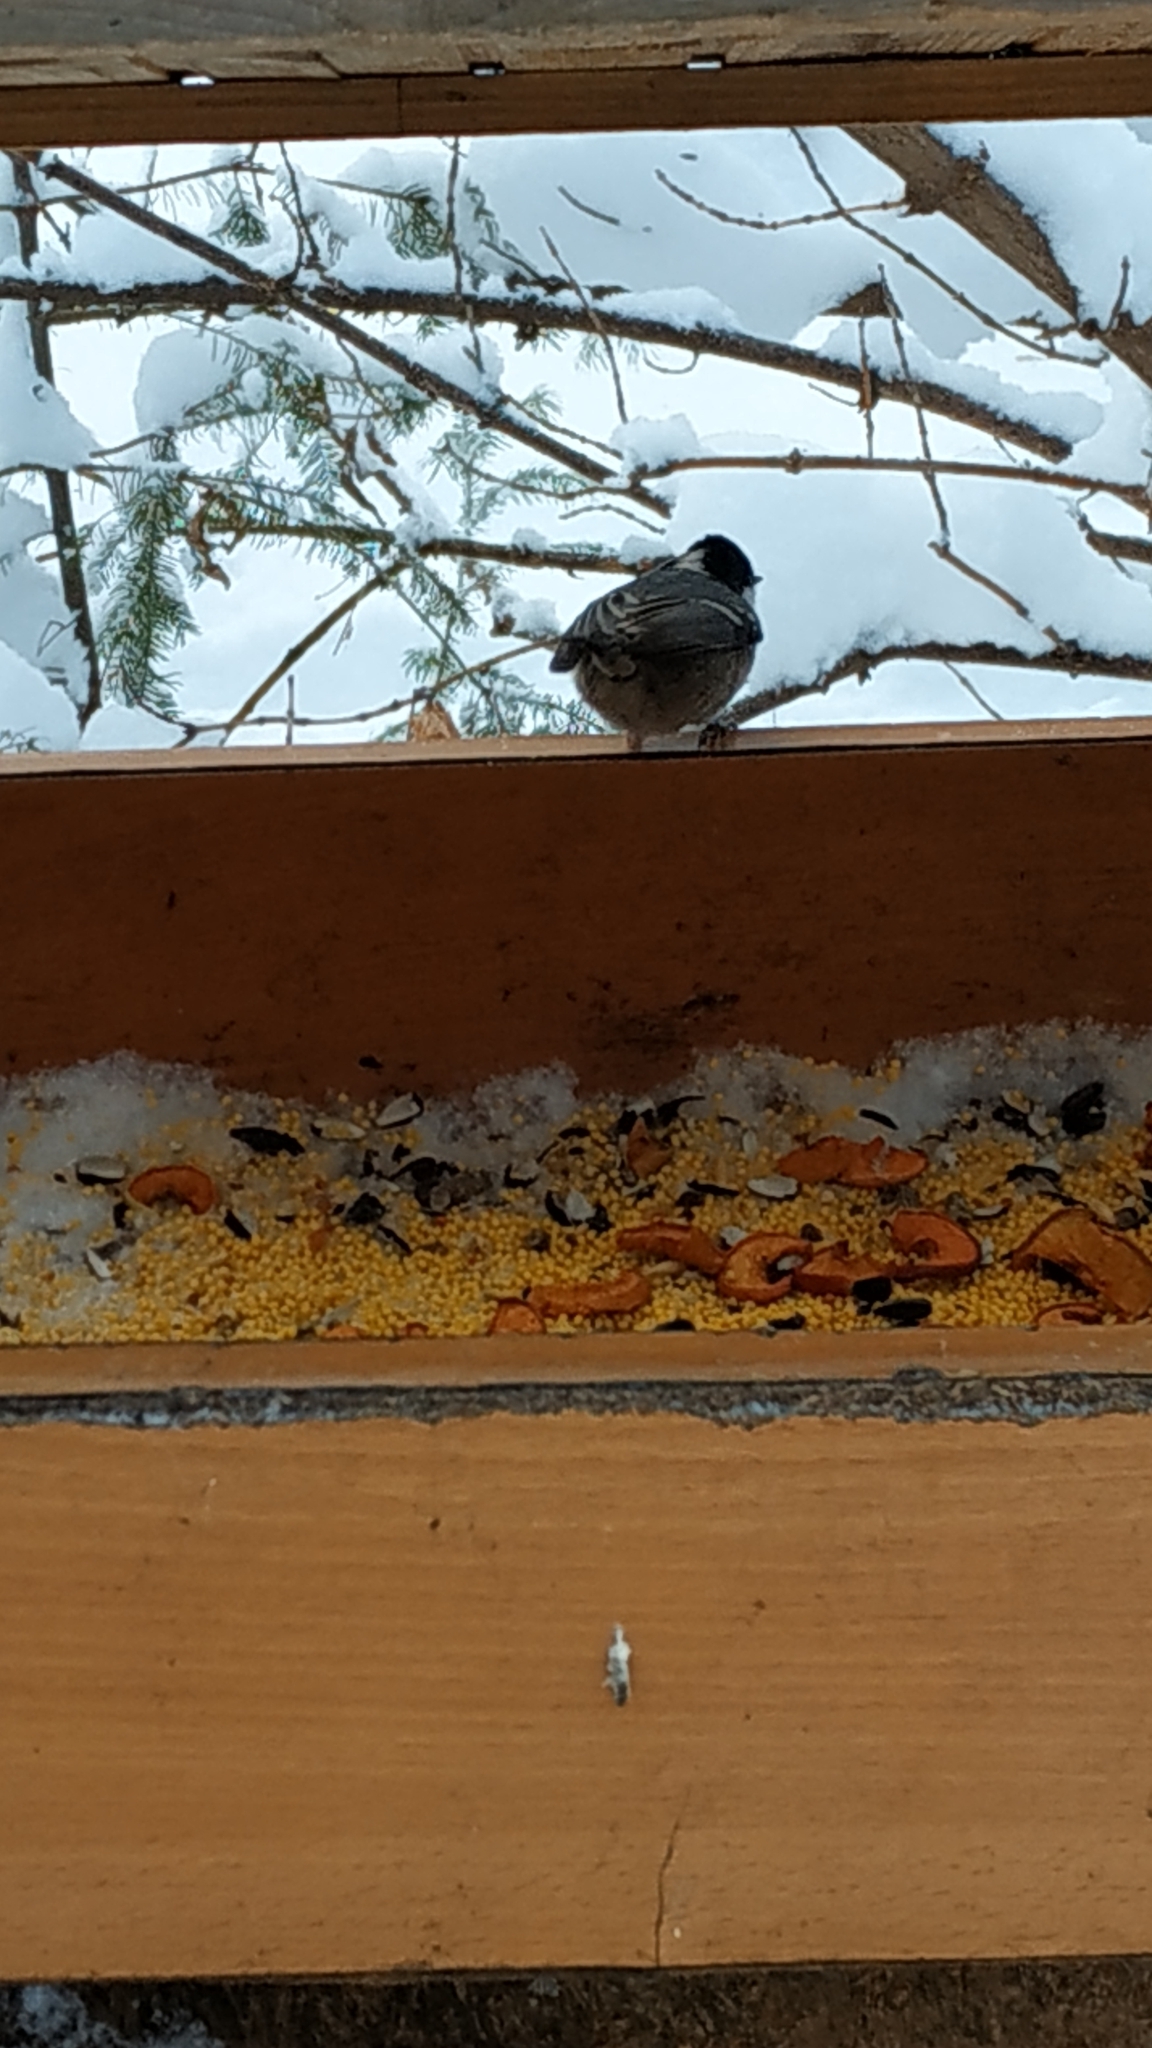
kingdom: Animalia
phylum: Chordata
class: Aves
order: Passeriformes
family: Paridae
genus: Periparus
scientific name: Periparus ater
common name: Coal tit
